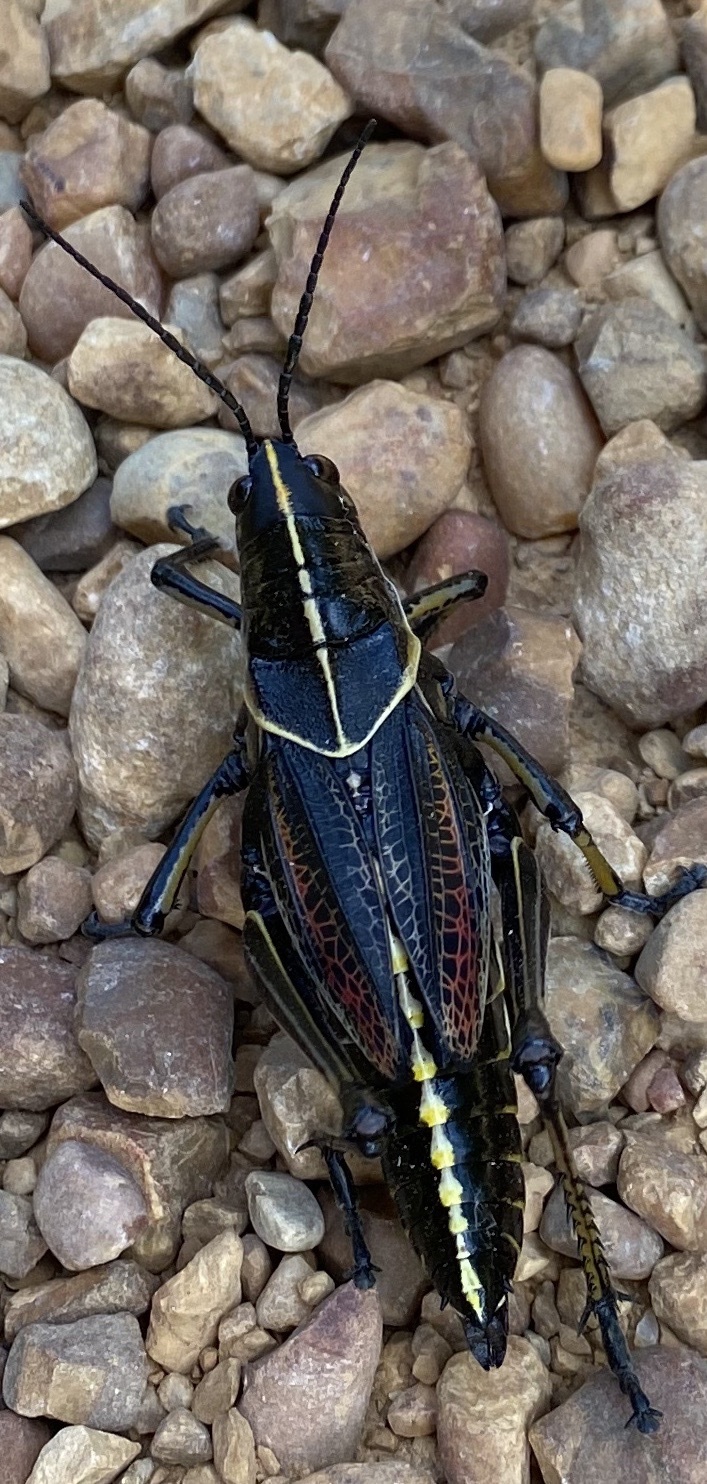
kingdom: Animalia
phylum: Arthropoda
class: Insecta
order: Orthoptera
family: Romaleidae
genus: Romalea
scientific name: Romalea microptera
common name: Eastern lubber grasshopper
